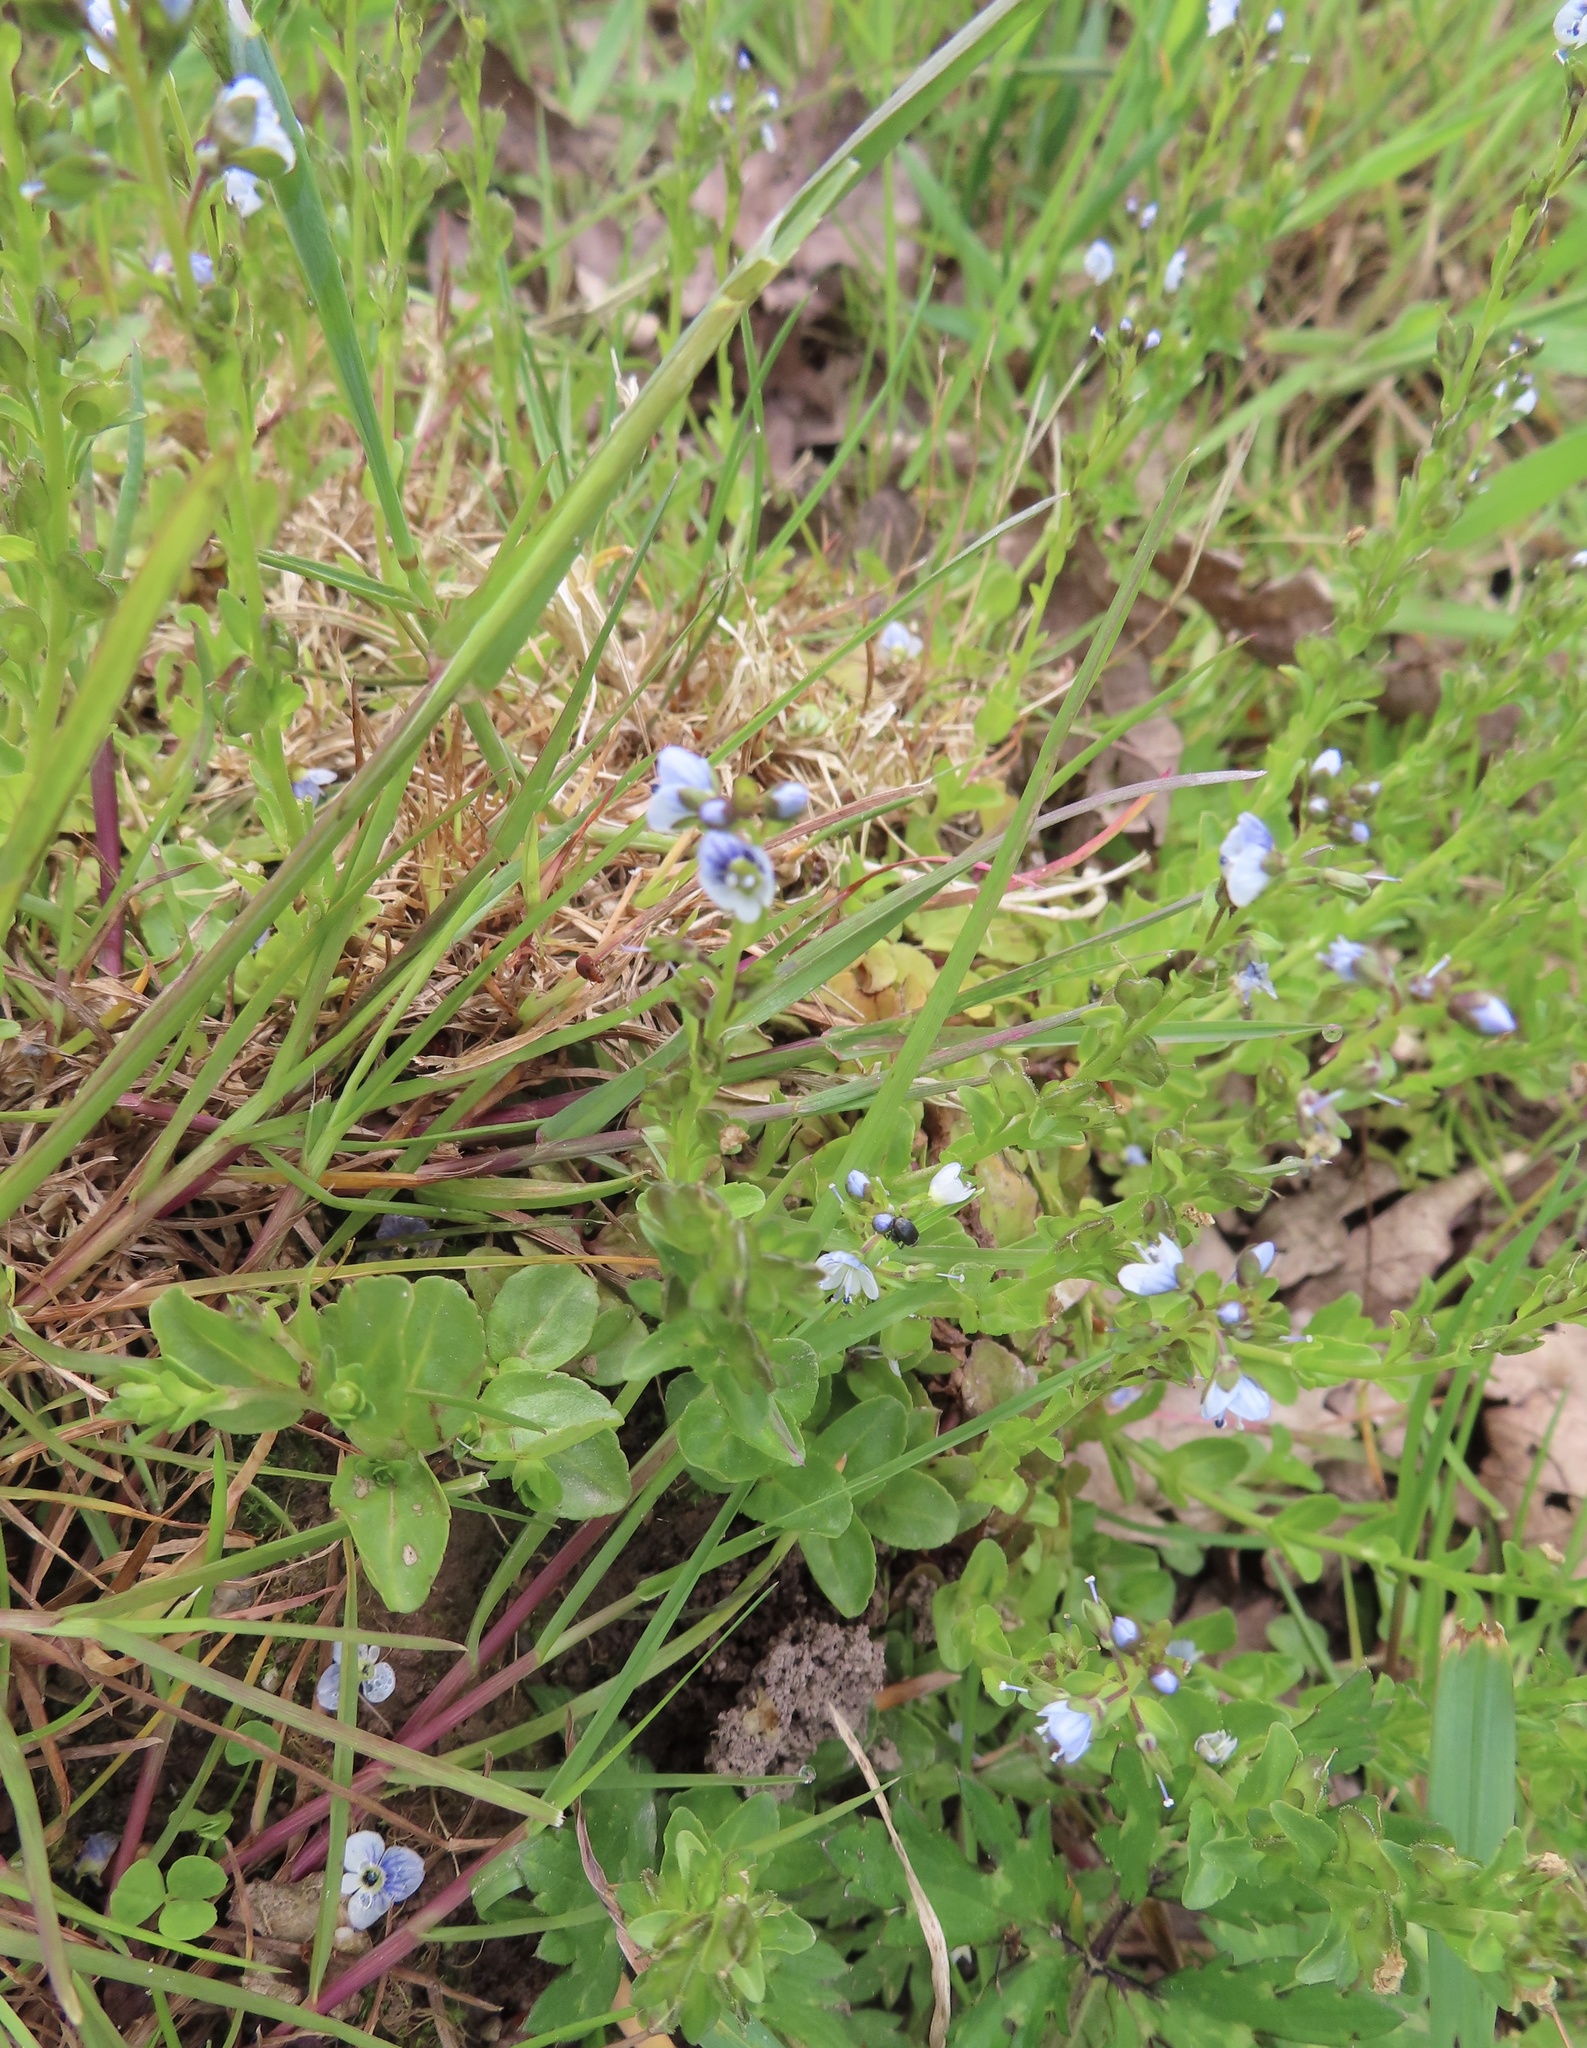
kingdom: Plantae
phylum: Tracheophyta
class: Magnoliopsida
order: Lamiales
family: Plantaginaceae
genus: Veronica
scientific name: Veronica serpyllifolia
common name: Thyme-leaved speedwell
